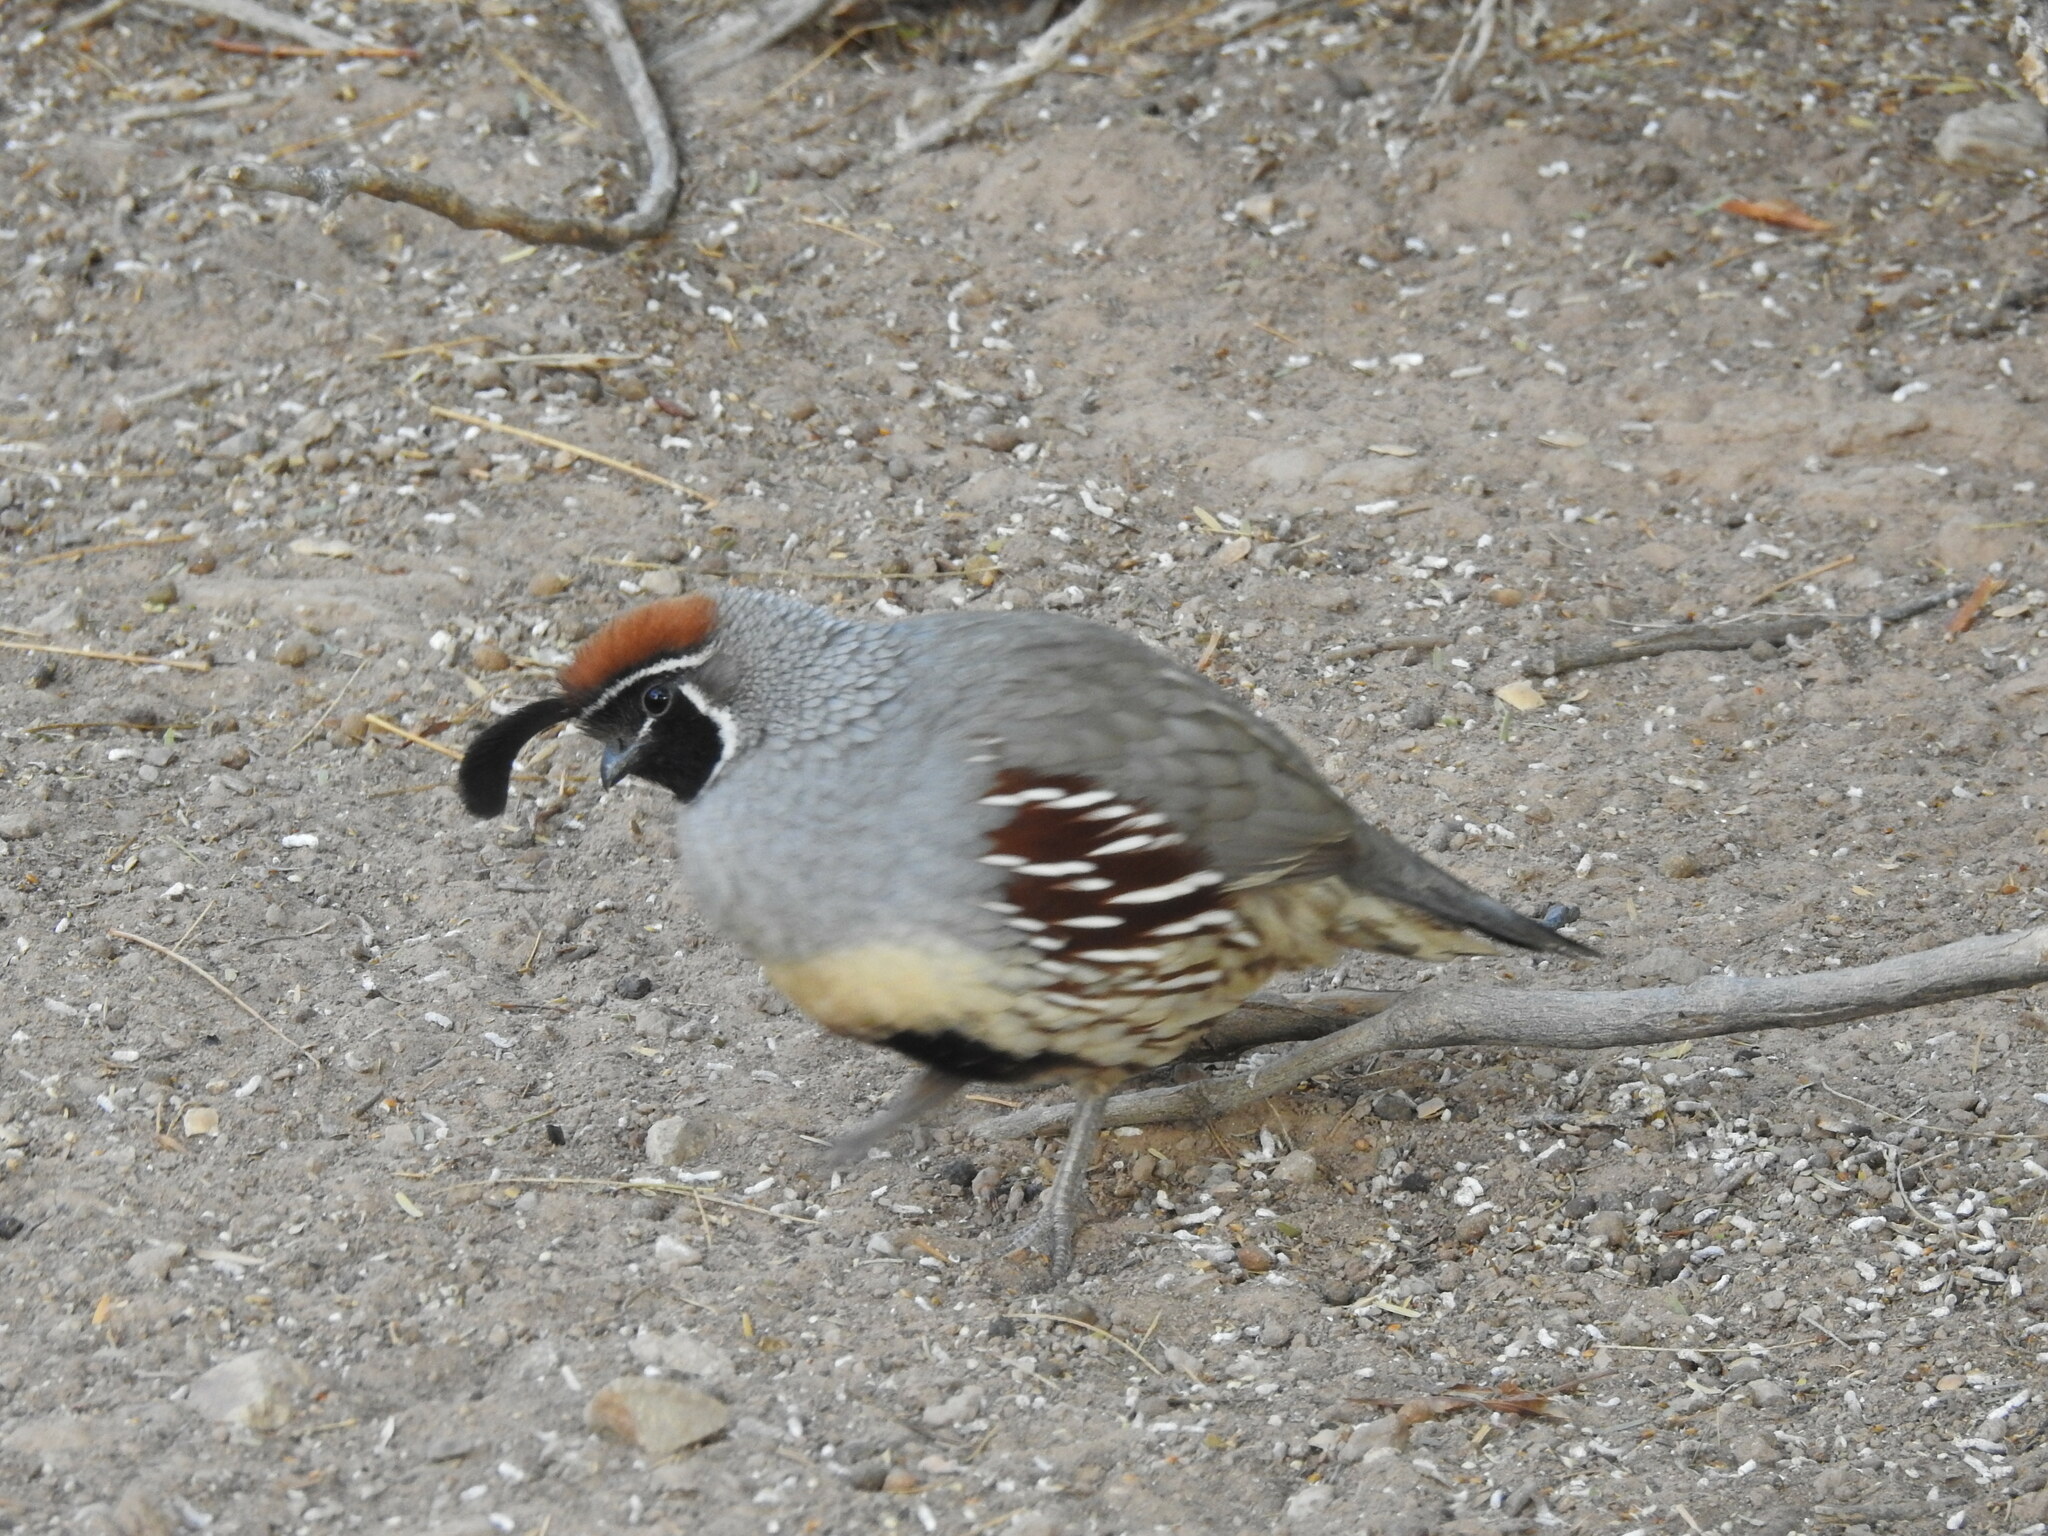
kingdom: Animalia
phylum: Chordata
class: Aves
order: Galliformes
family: Odontophoridae
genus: Callipepla
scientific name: Callipepla gambelii
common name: Gambel's quail
